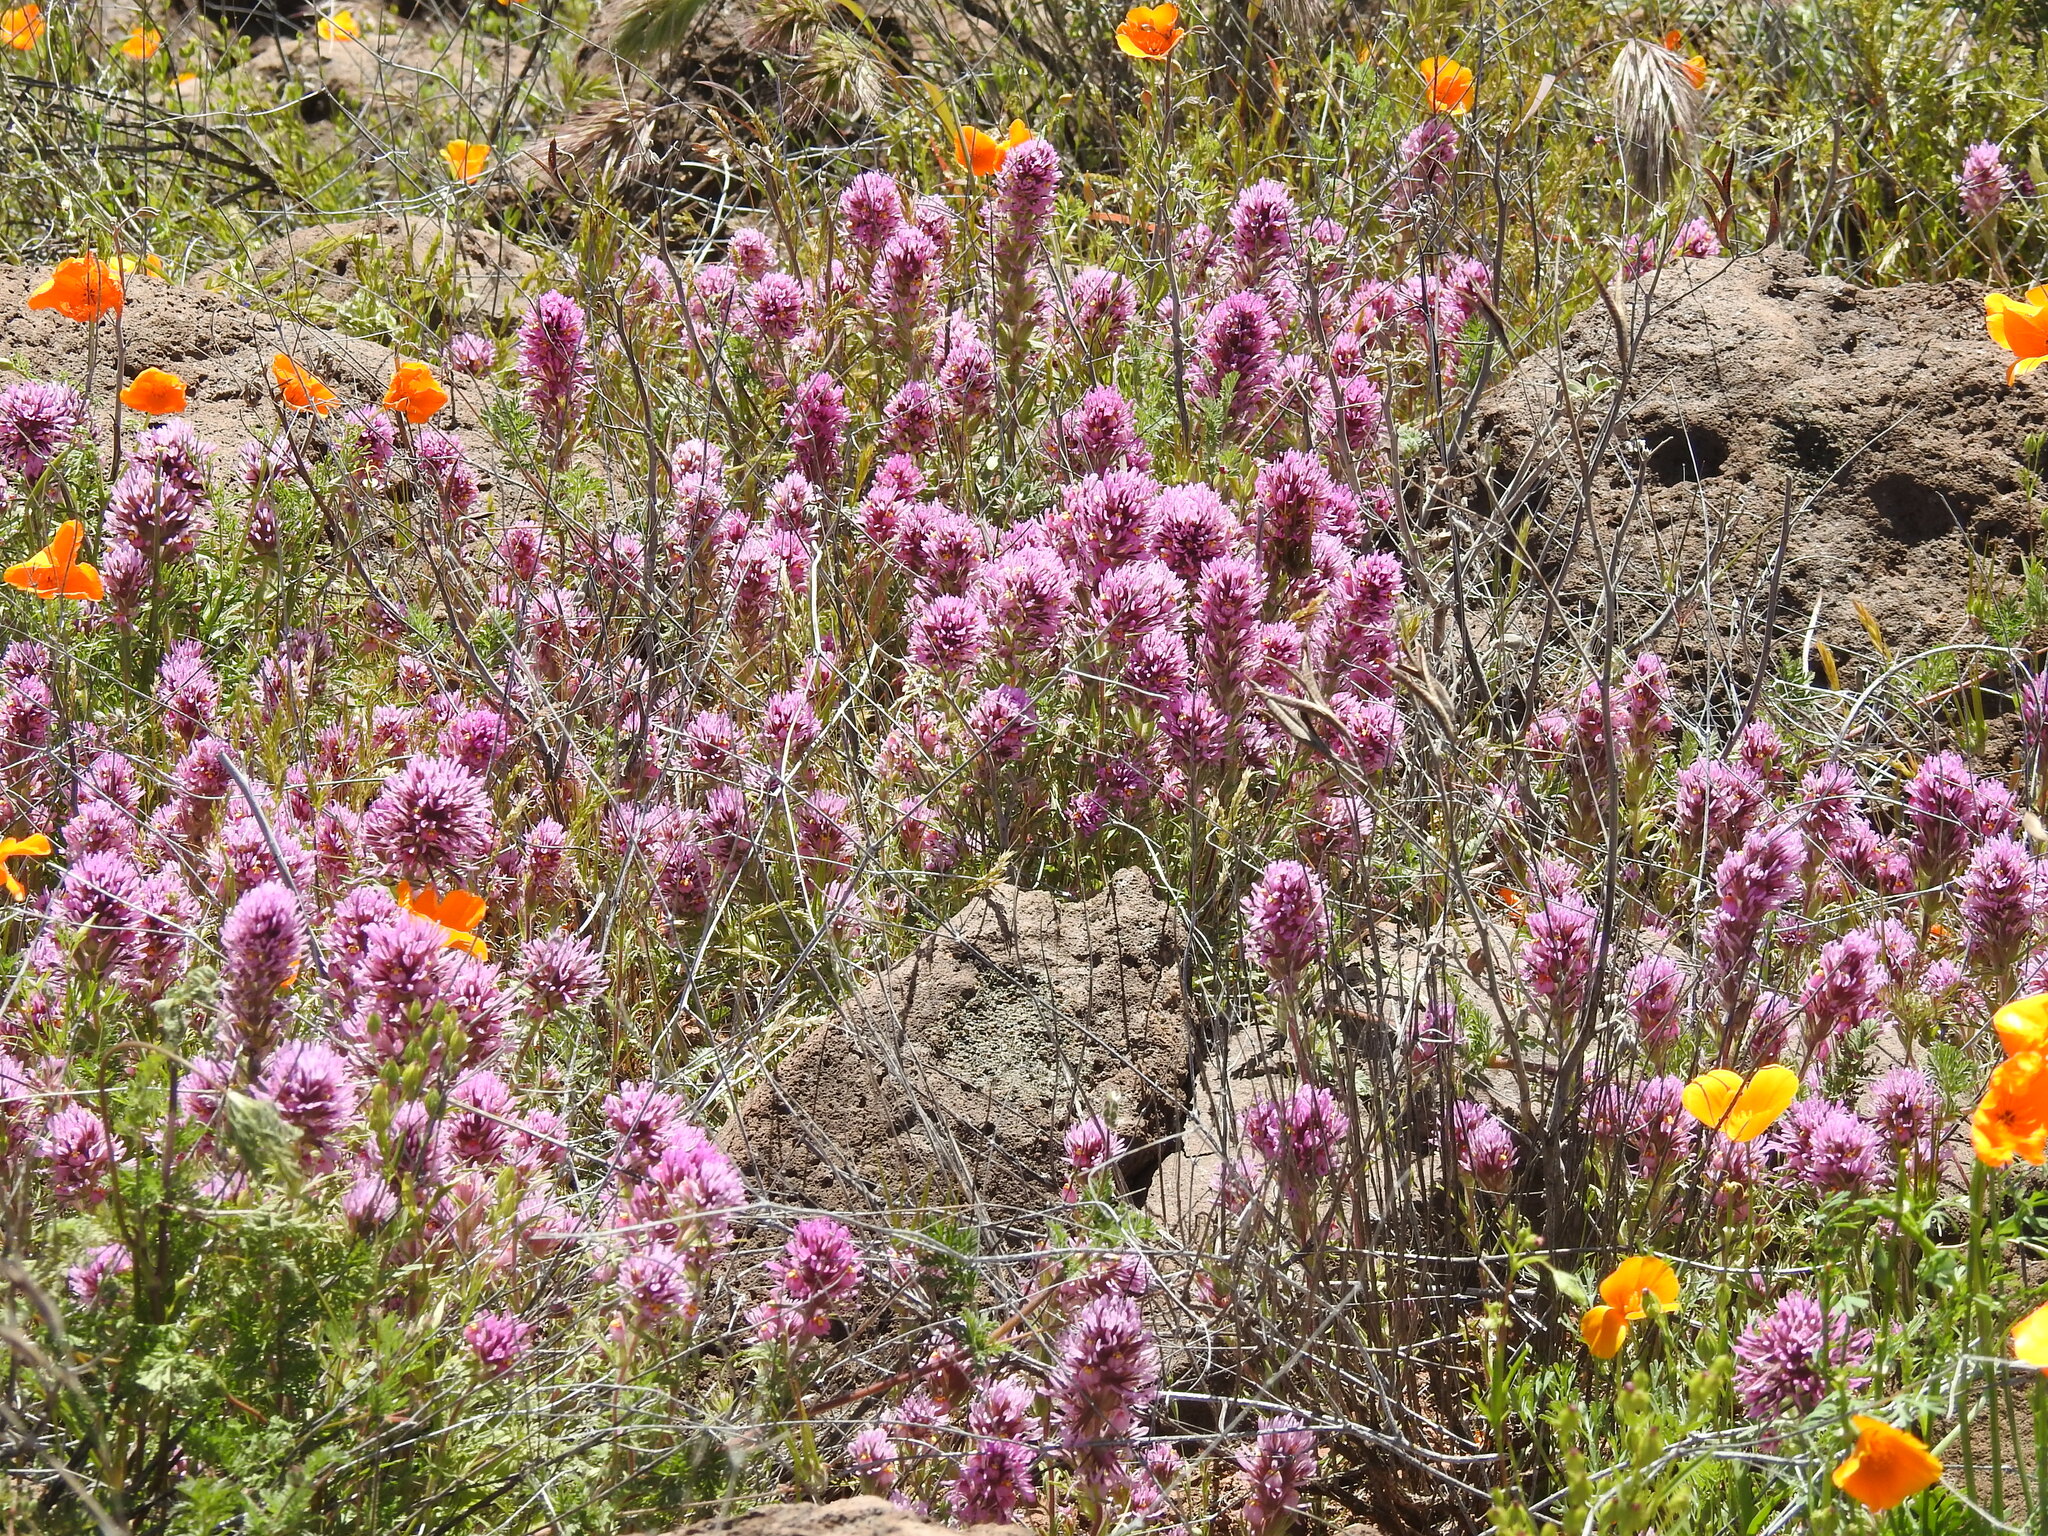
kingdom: Plantae
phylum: Tracheophyta
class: Magnoliopsida
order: Lamiales
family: Orobanchaceae
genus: Castilleja
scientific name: Castilleja exserta
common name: Purple owl-clover
